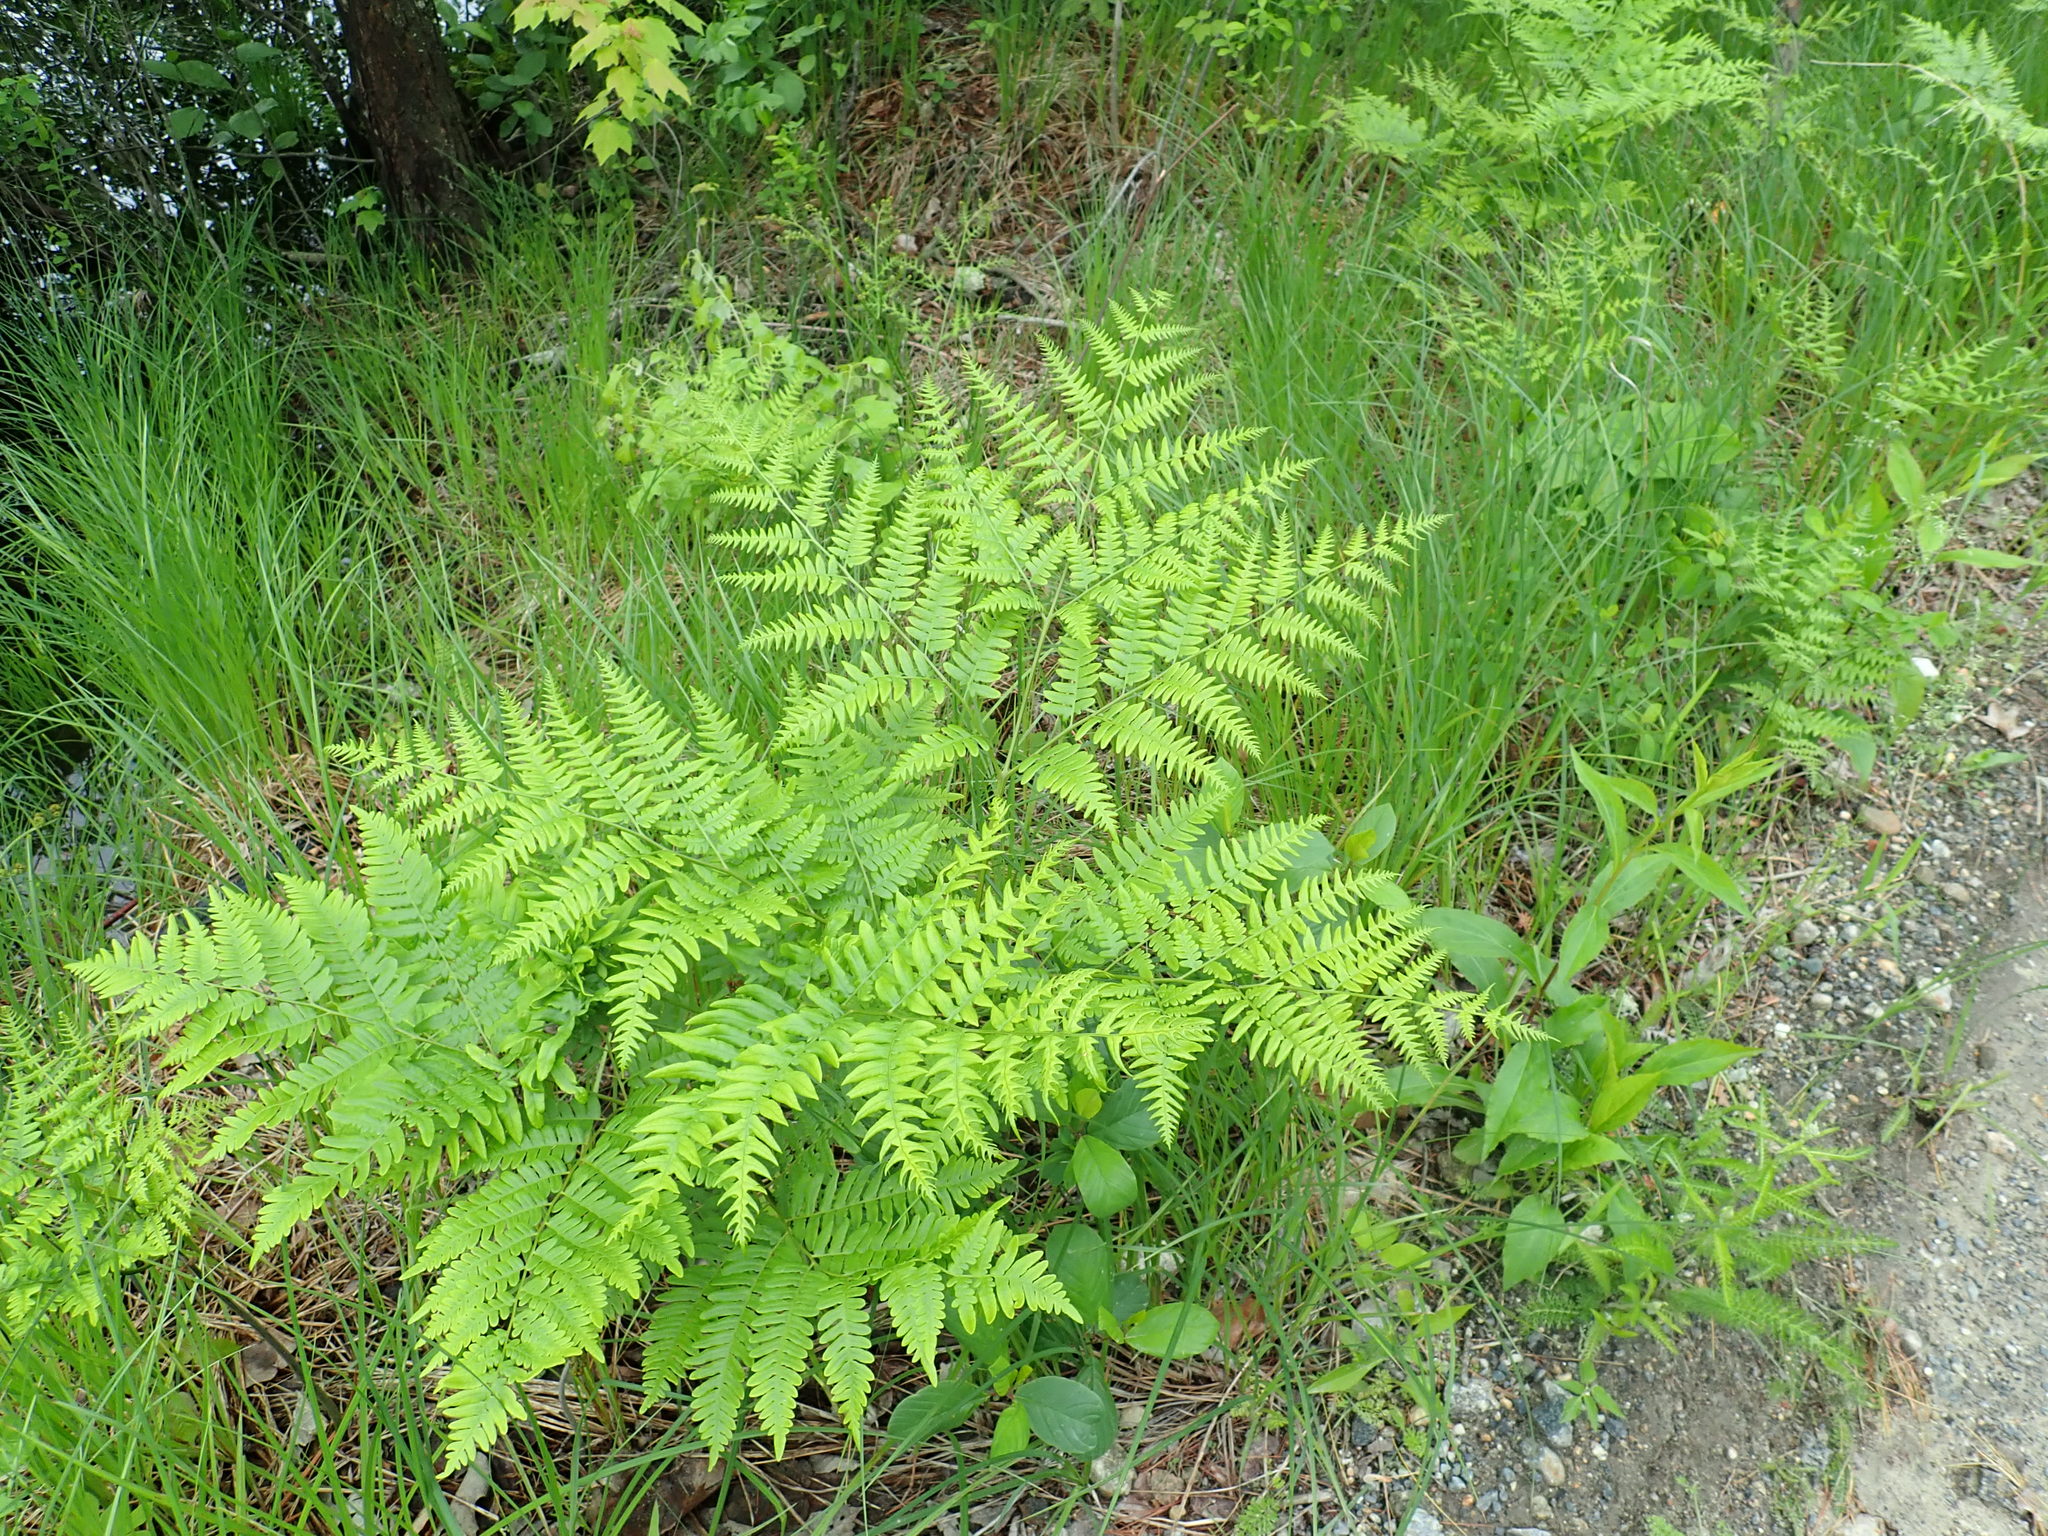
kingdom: Plantae
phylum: Tracheophyta
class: Polypodiopsida
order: Polypodiales
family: Dennstaedtiaceae
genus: Pteridium
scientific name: Pteridium aquilinum
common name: Bracken
